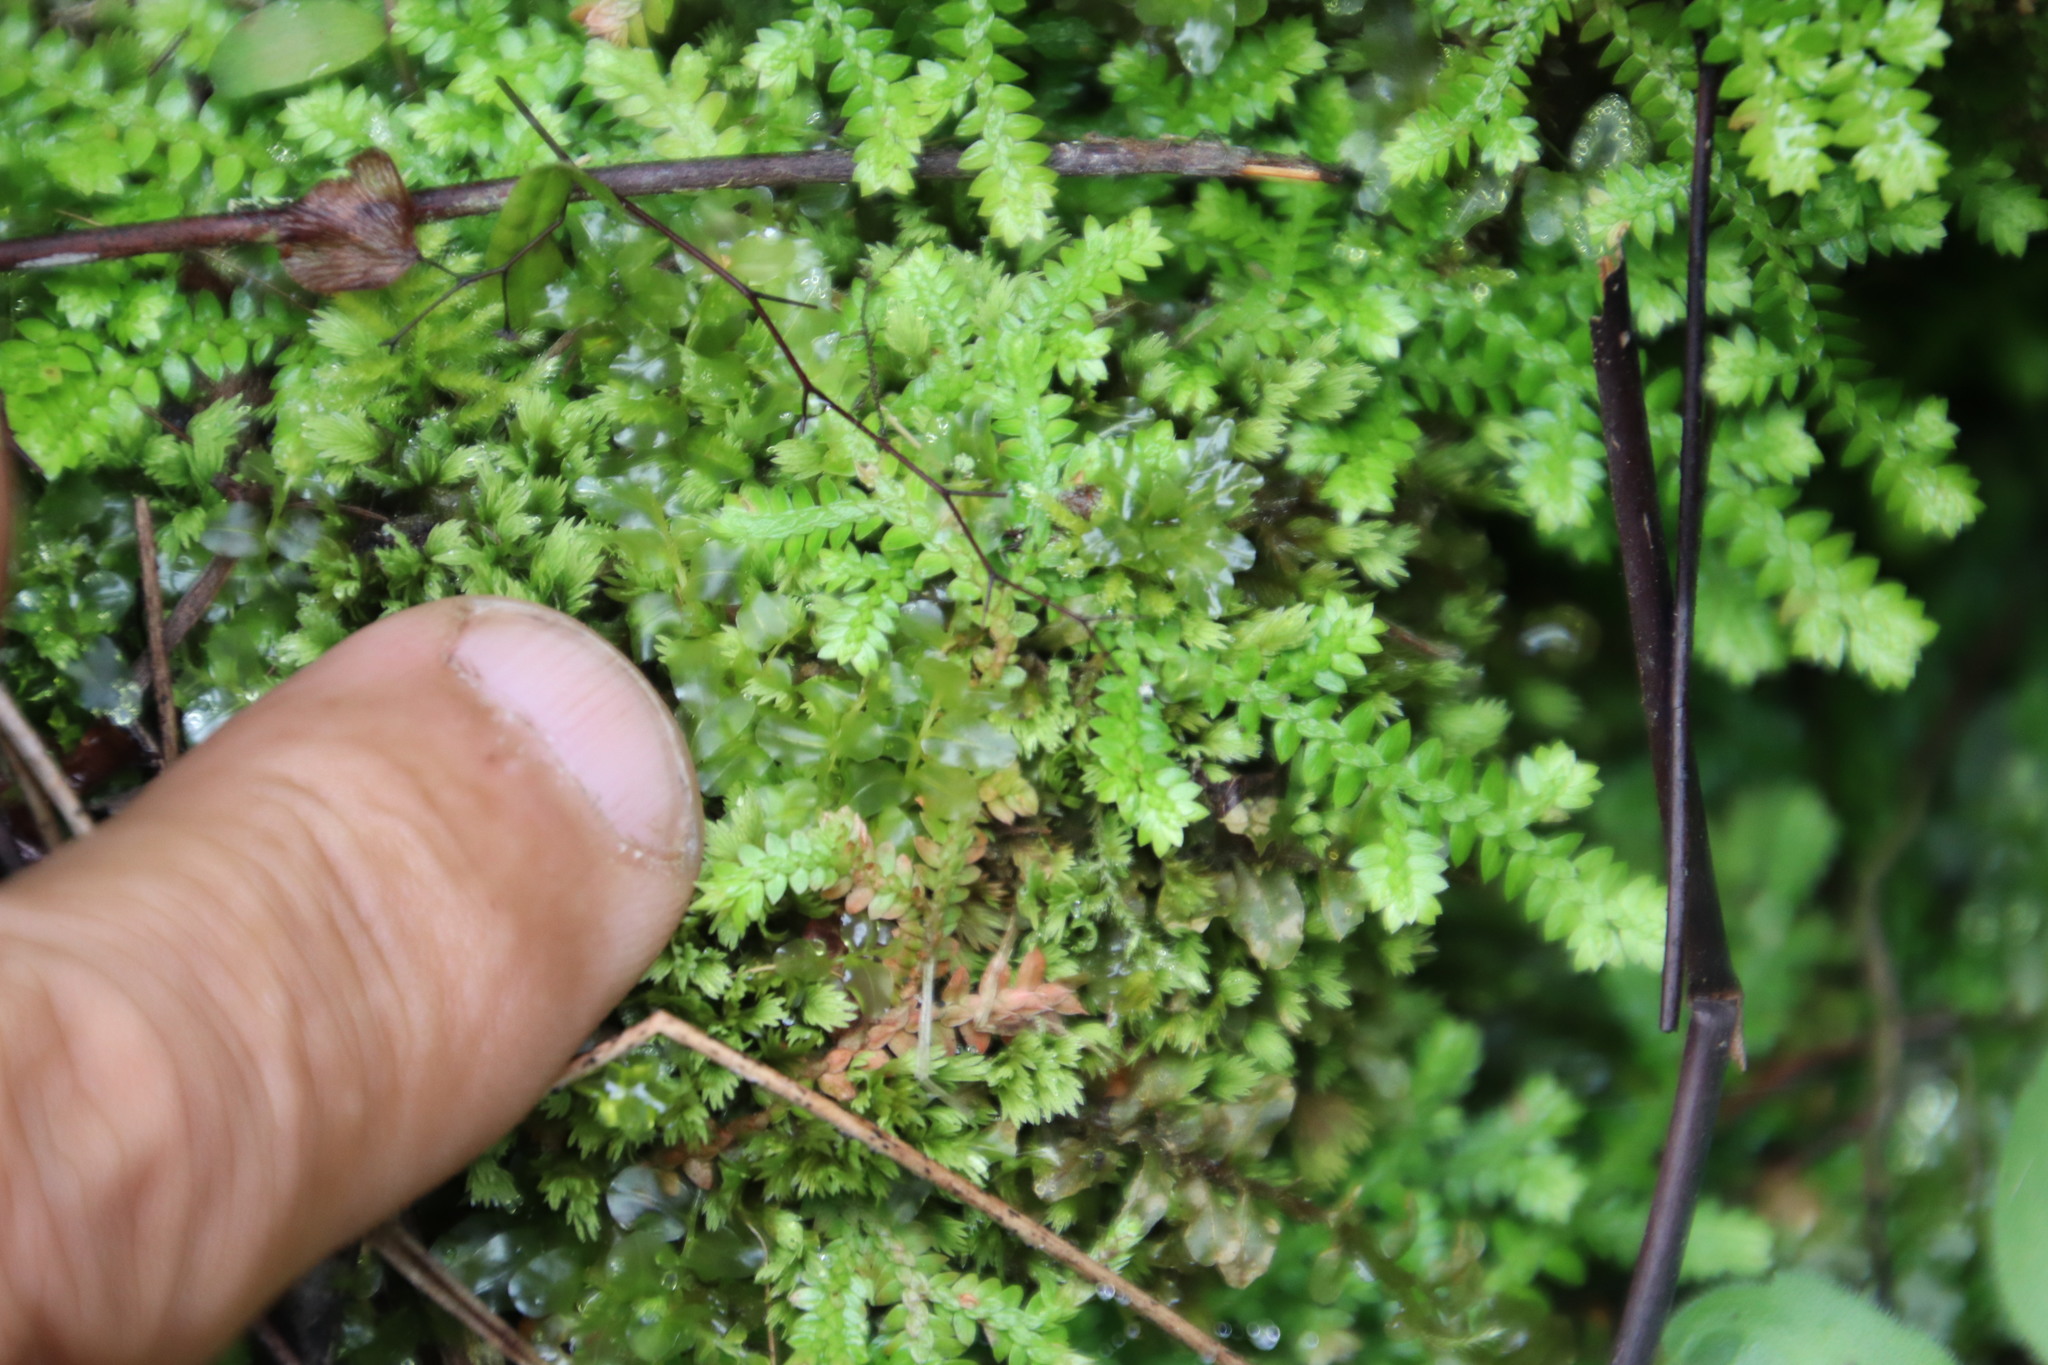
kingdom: Plantae
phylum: Tracheophyta
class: Lycopodiopsida
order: Selaginellales
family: Selaginellaceae
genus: Selaginella
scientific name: Selaginella kraussiana
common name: Krauss' spikemoss
